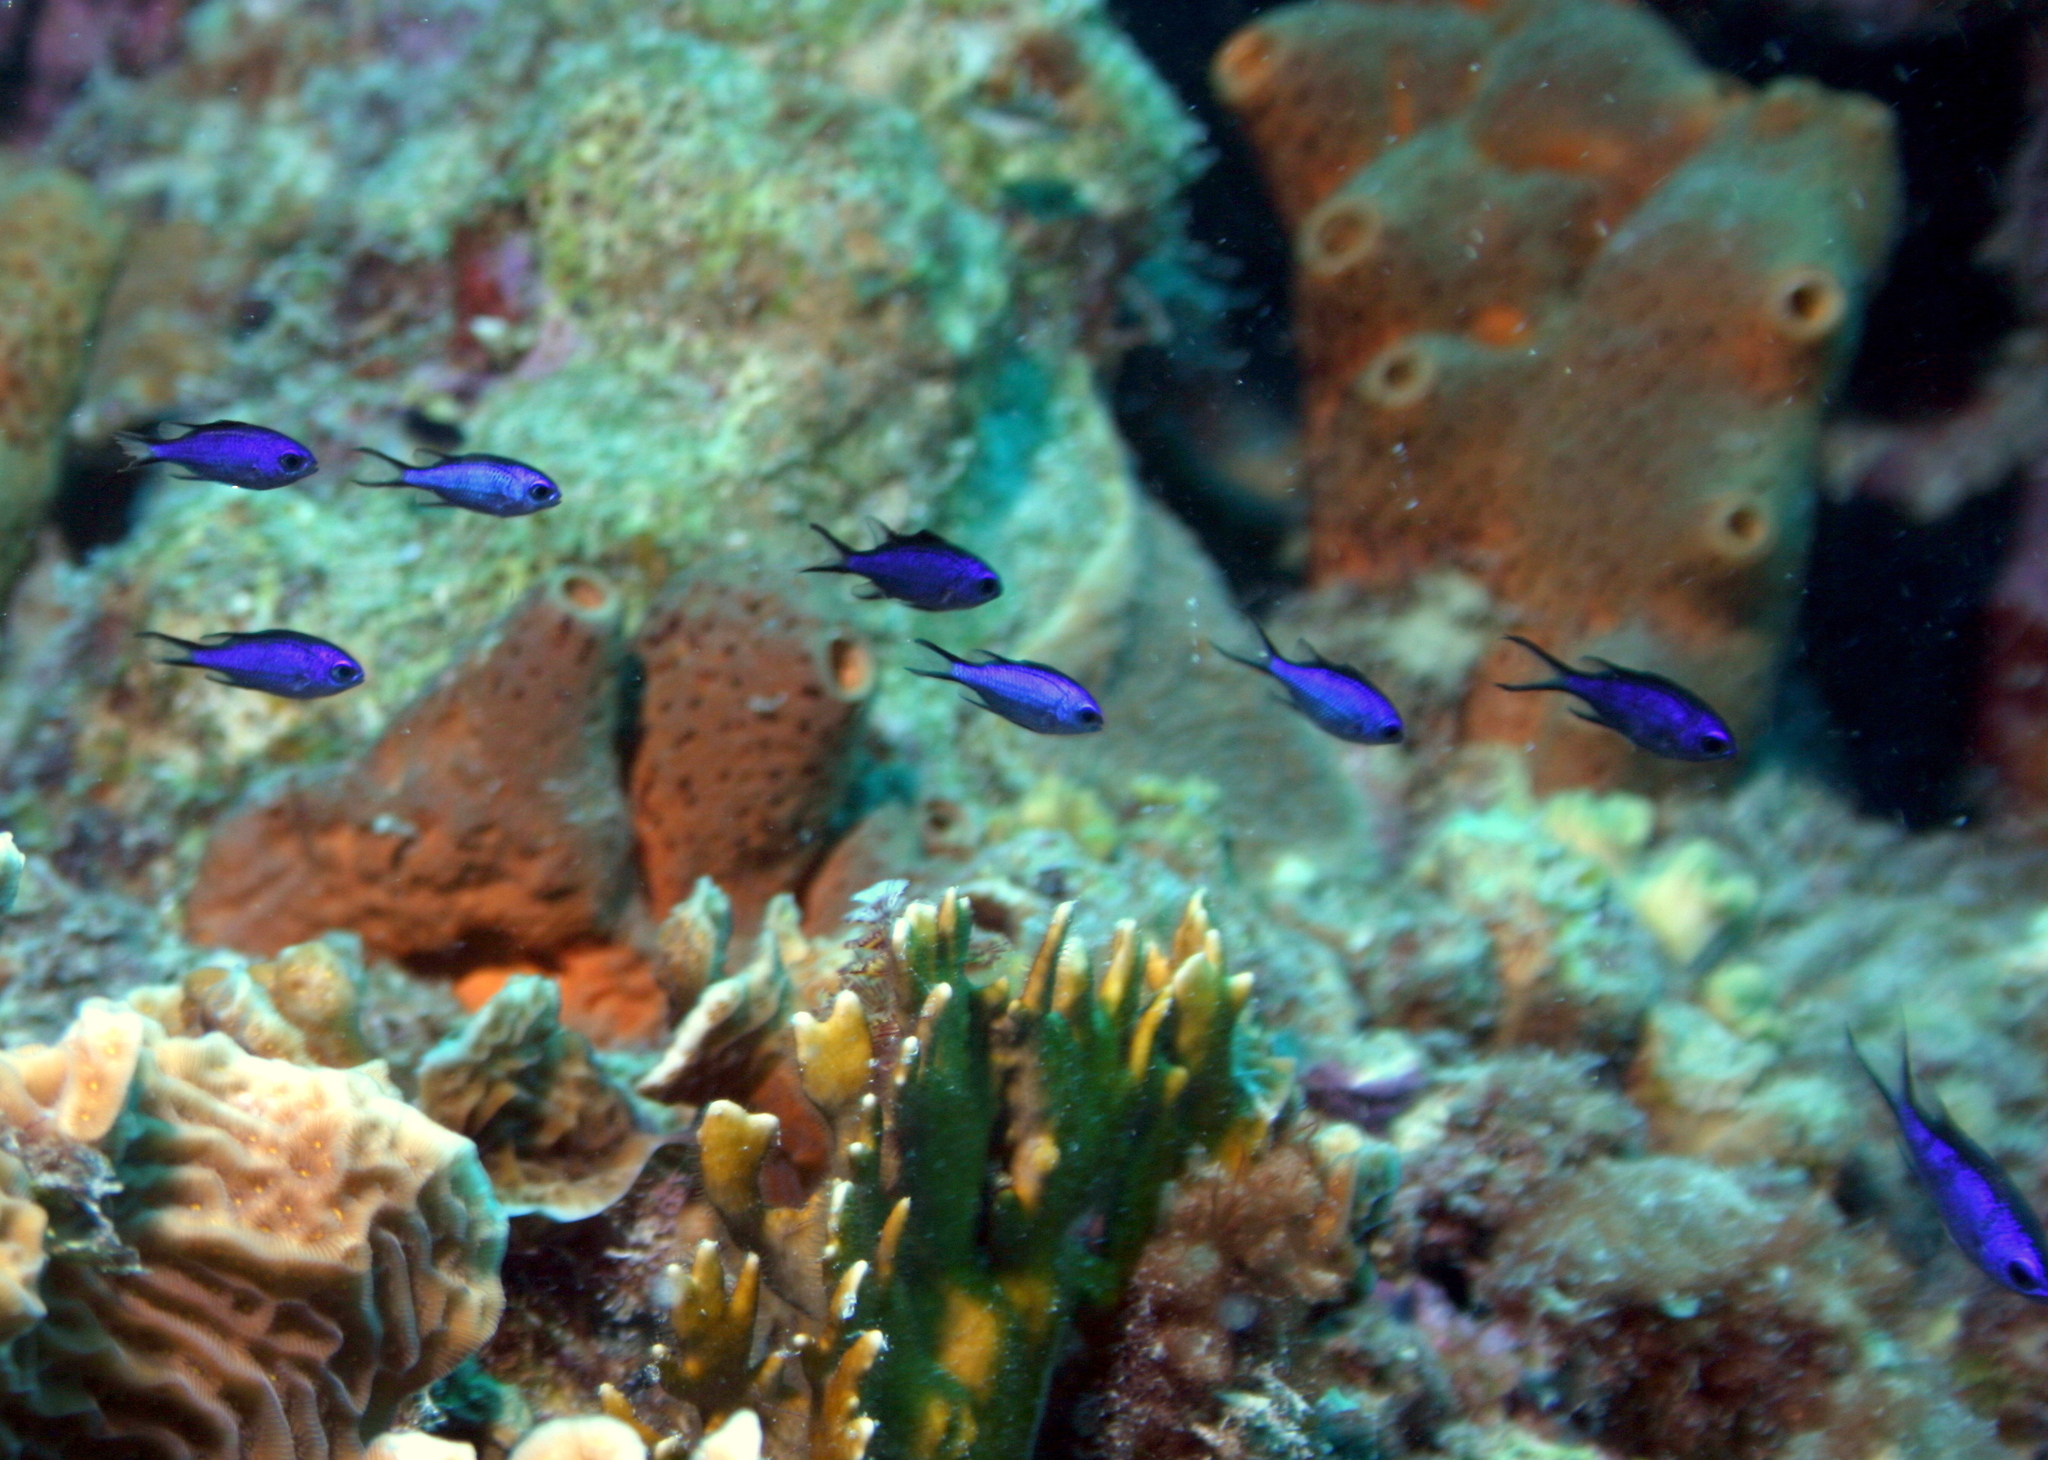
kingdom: Animalia
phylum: Chordata
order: Perciformes
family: Pomacentridae
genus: Chromis
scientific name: Chromis cyanea
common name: Blue chromis
